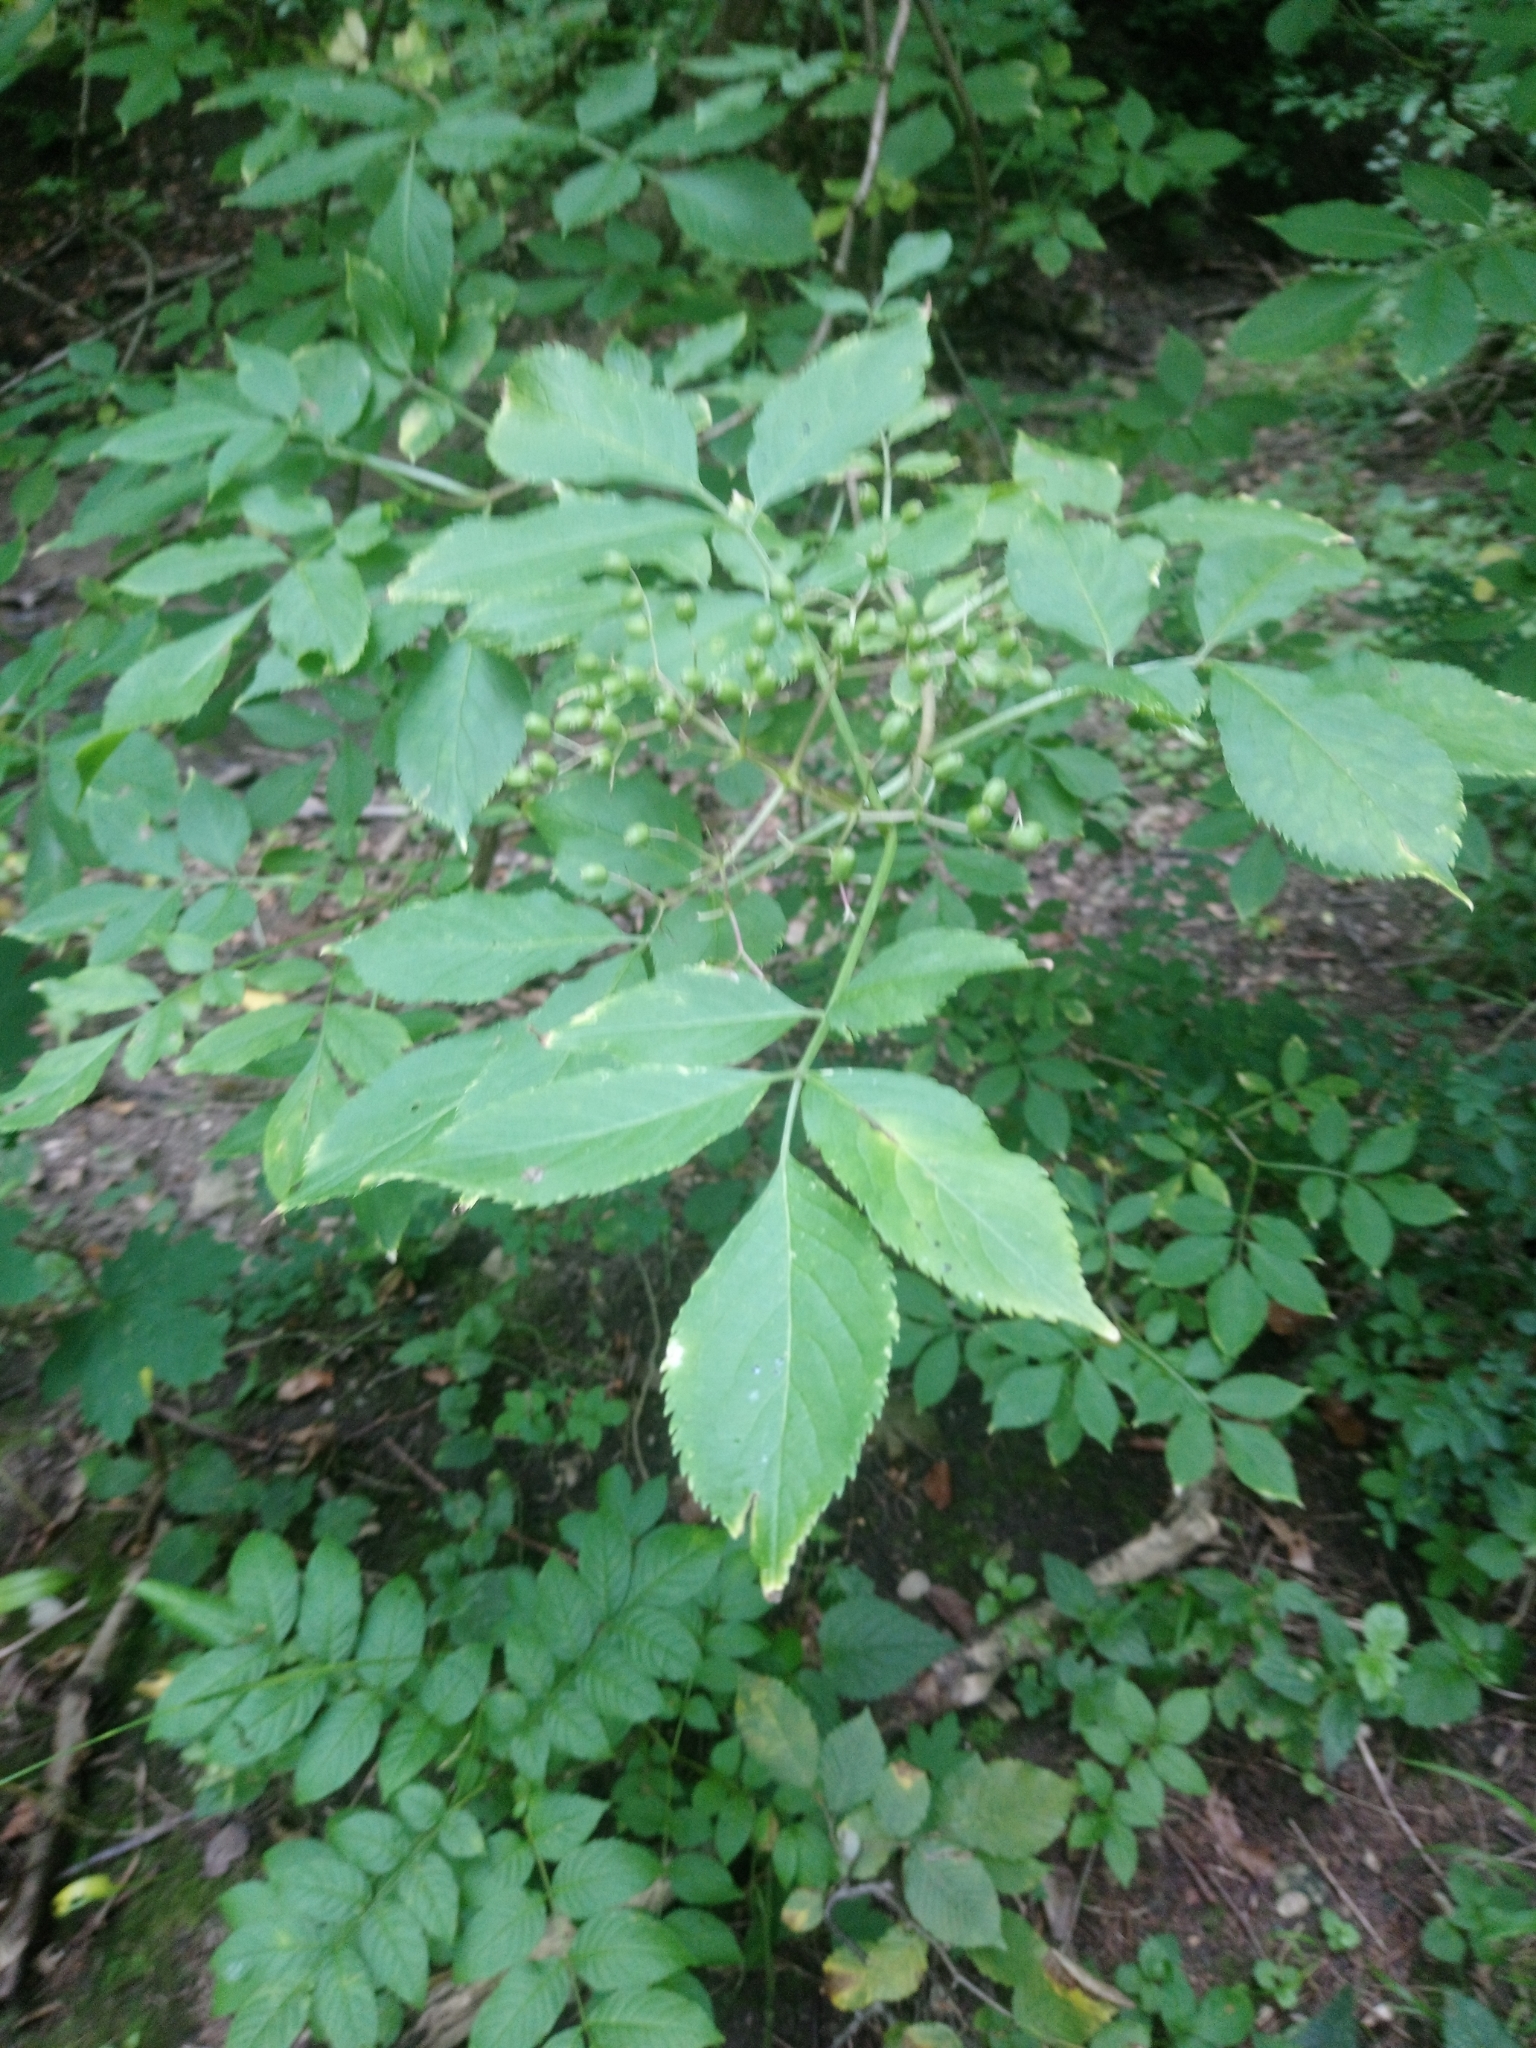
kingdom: Plantae
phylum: Tracheophyta
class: Magnoliopsida
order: Dipsacales
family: Viburnaceae
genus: Sambucus
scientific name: Sambucus nigra
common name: Elder
